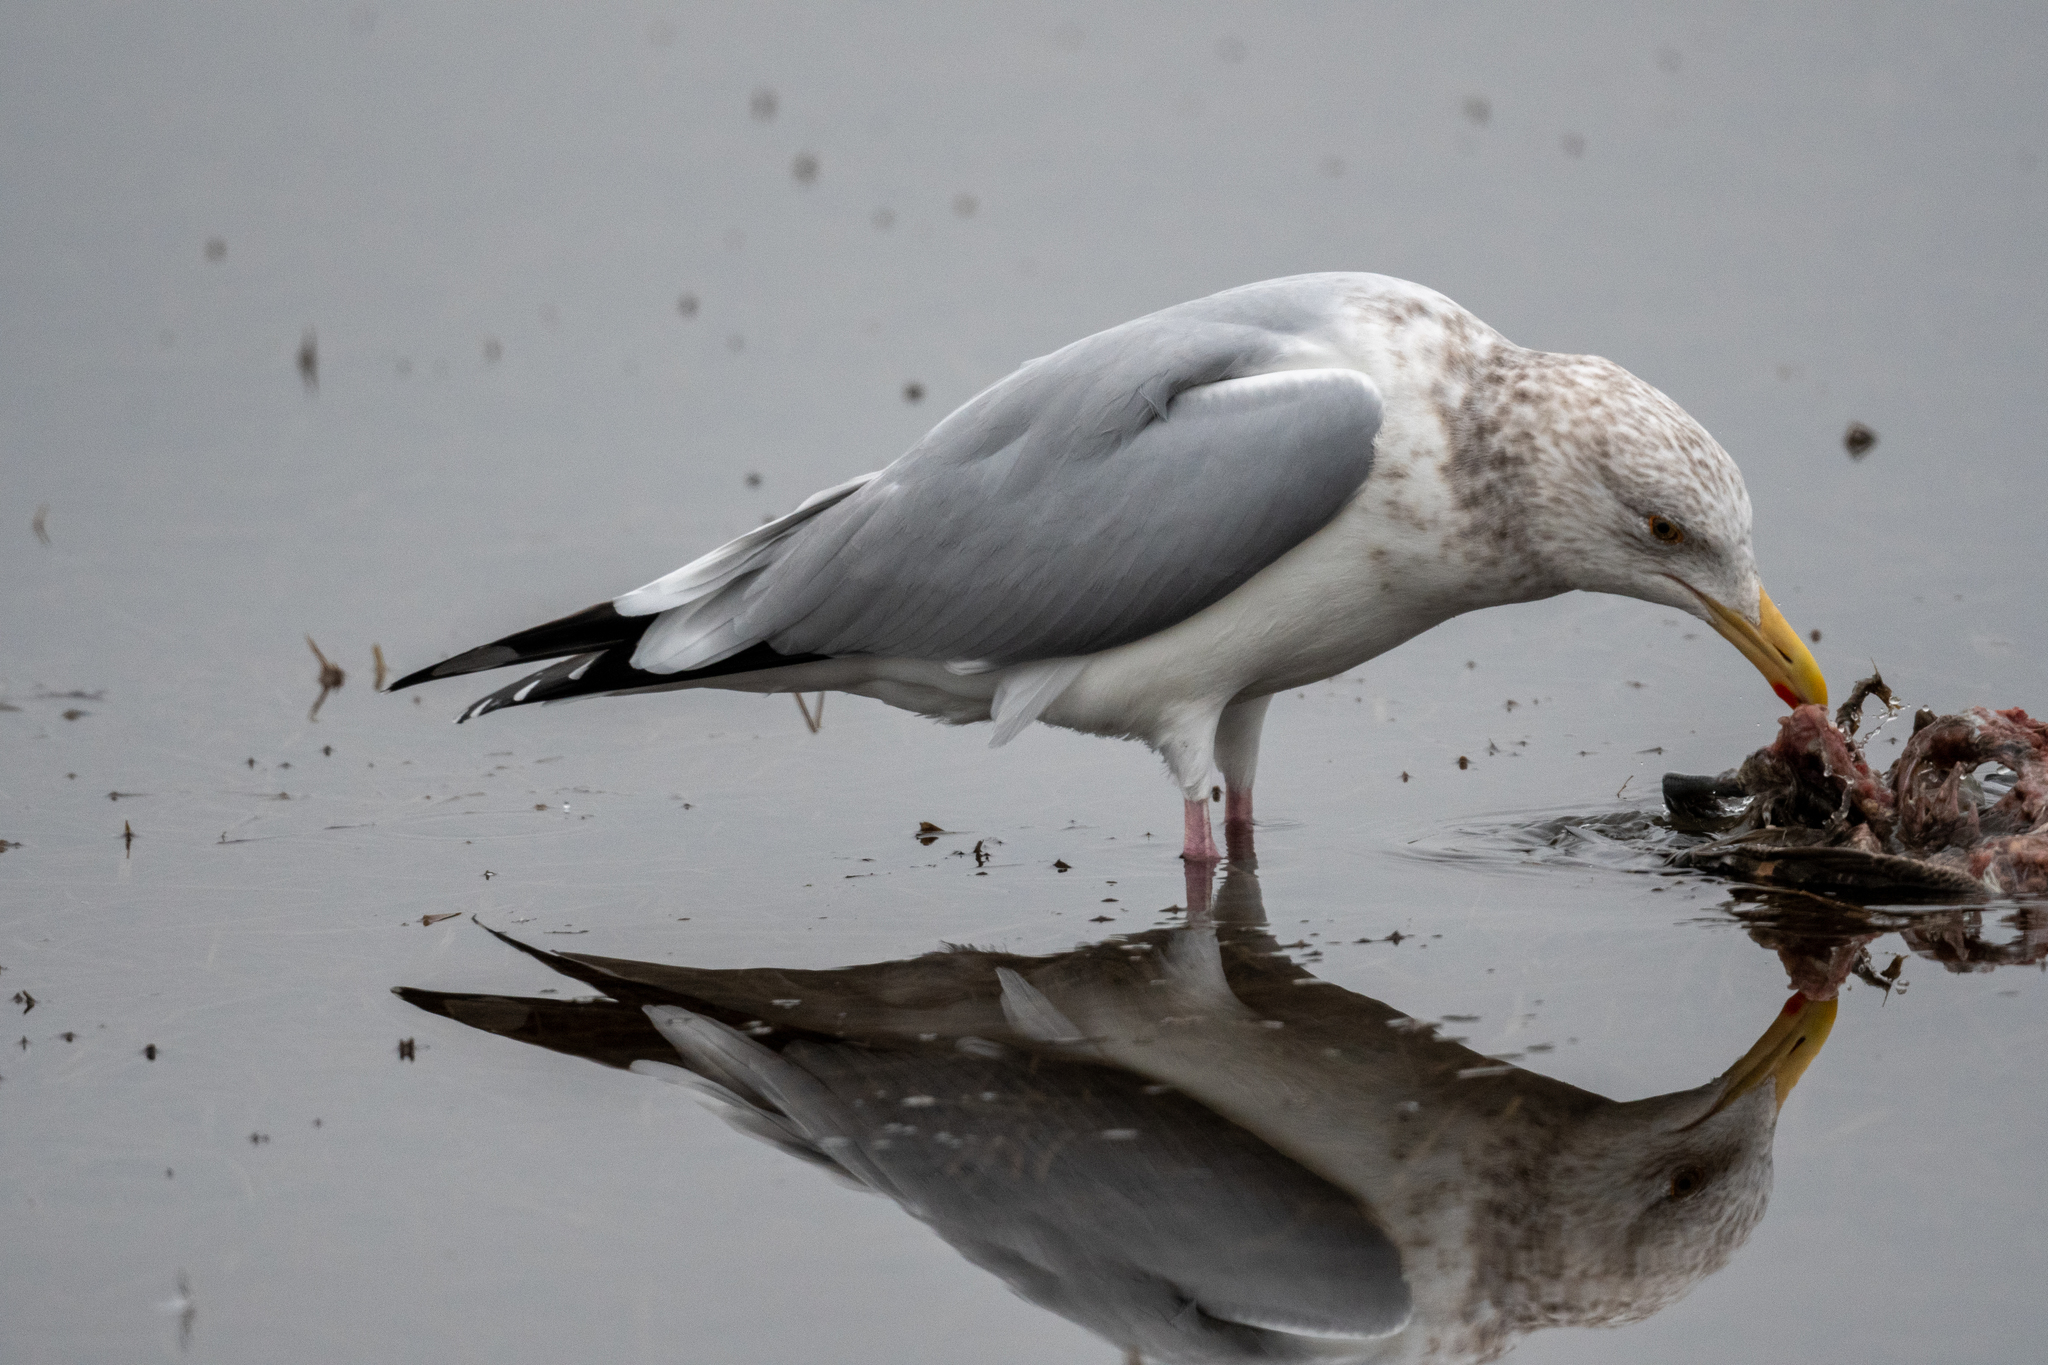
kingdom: Animalia
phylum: Chordata
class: Aves
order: Charadriiformes
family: Laridae
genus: Larus
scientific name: Larus argentatus
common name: Herring gull
